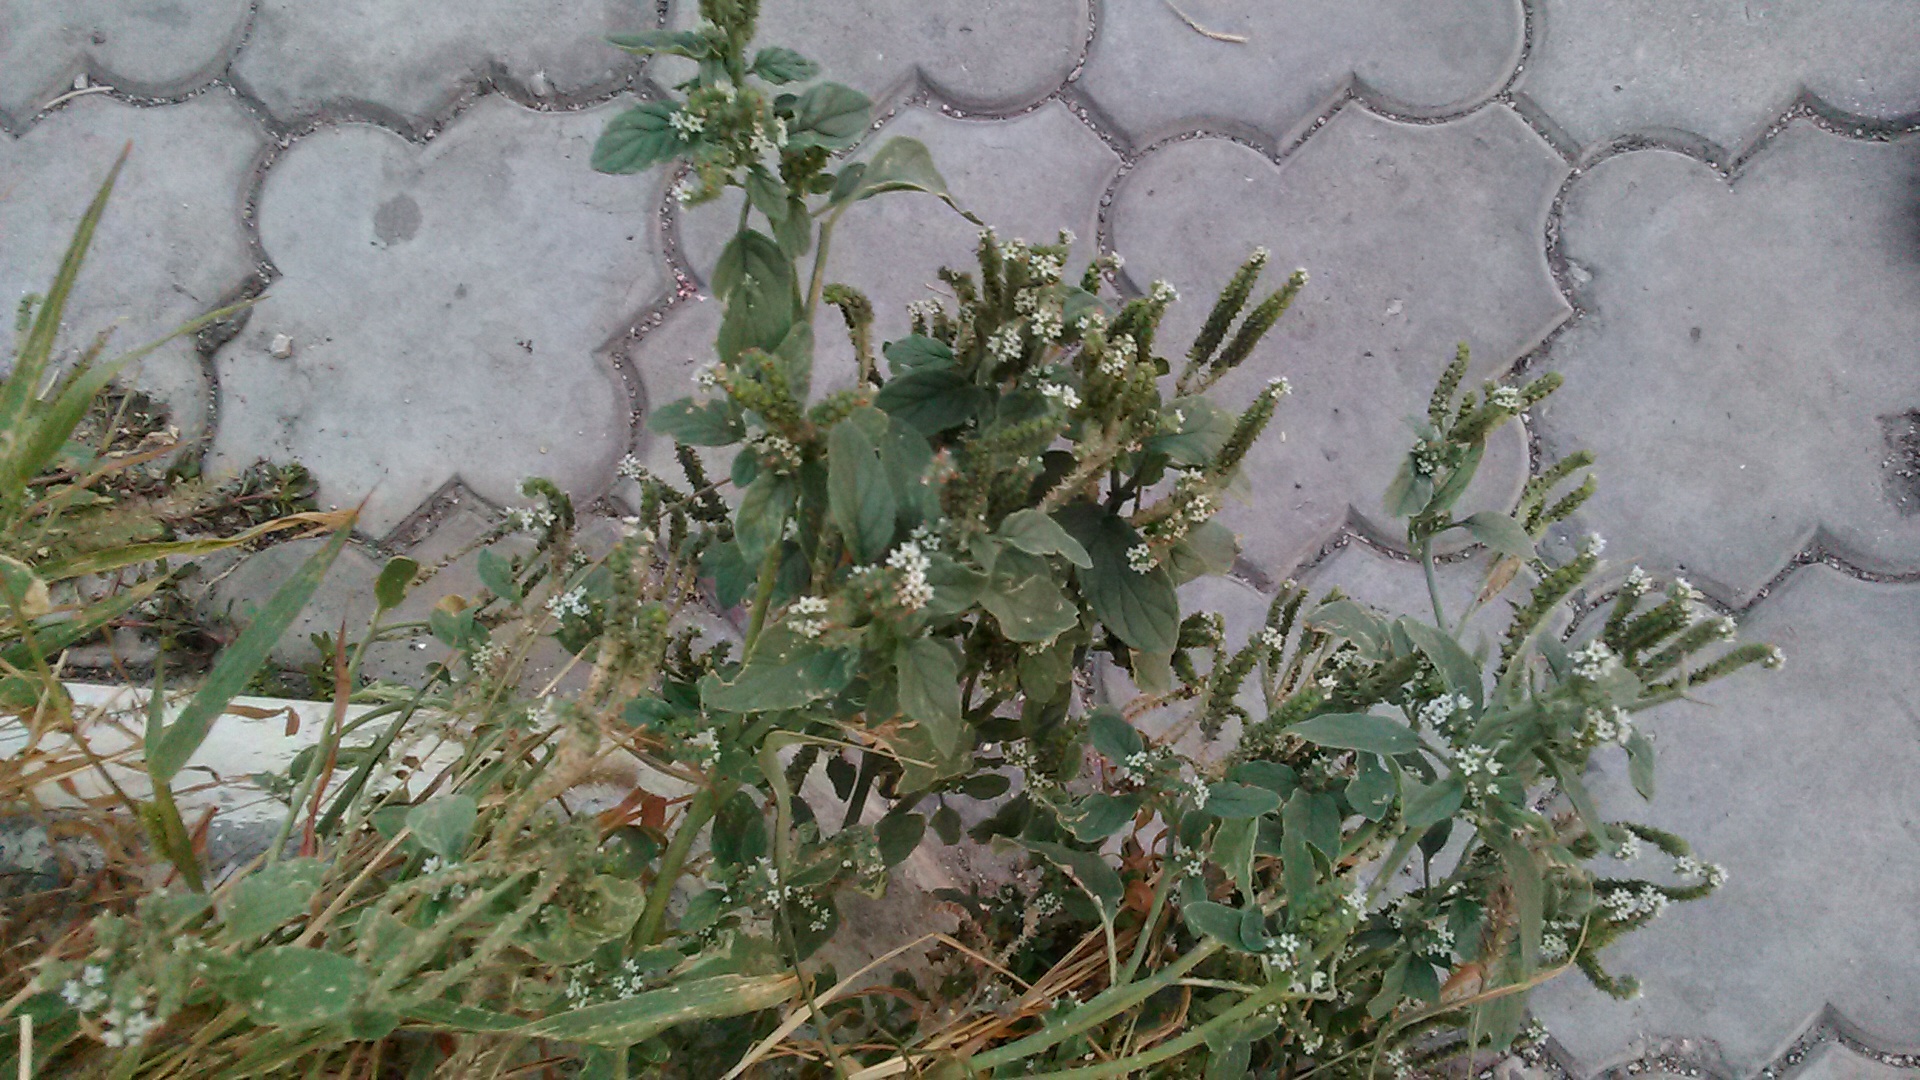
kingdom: Plantae
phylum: Tracheophyta
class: Magnoliopsida
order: Boraginales
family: Heliotropiaceae
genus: Heliotropium
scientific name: Heliotropium europaeum
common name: European heliotrope
